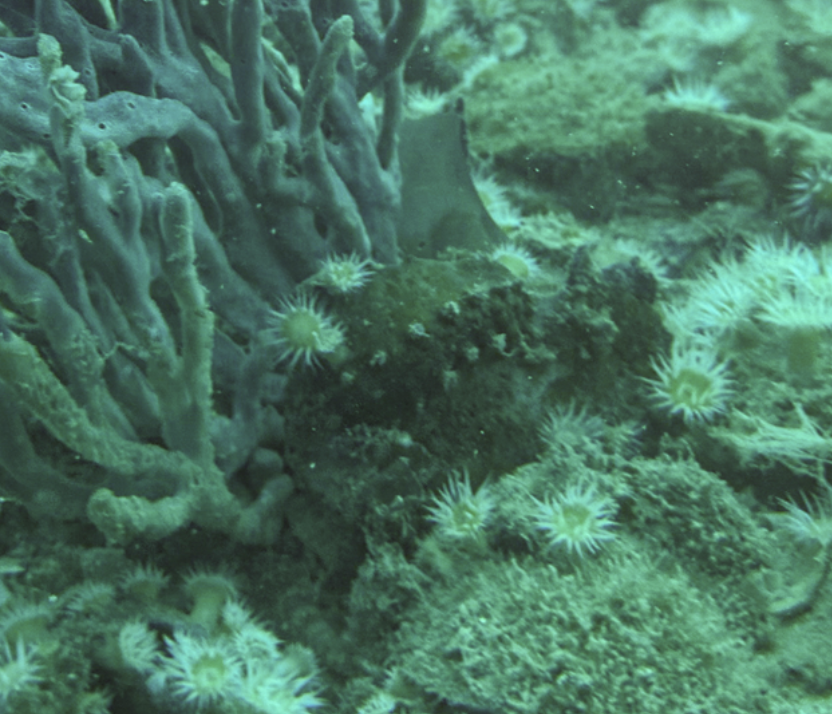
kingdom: Animalia
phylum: Mollusca
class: Polyplacophora
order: Chitonida
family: Acanthochitonidae
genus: Cryptoconchus
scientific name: Cryptoconchus porosus
